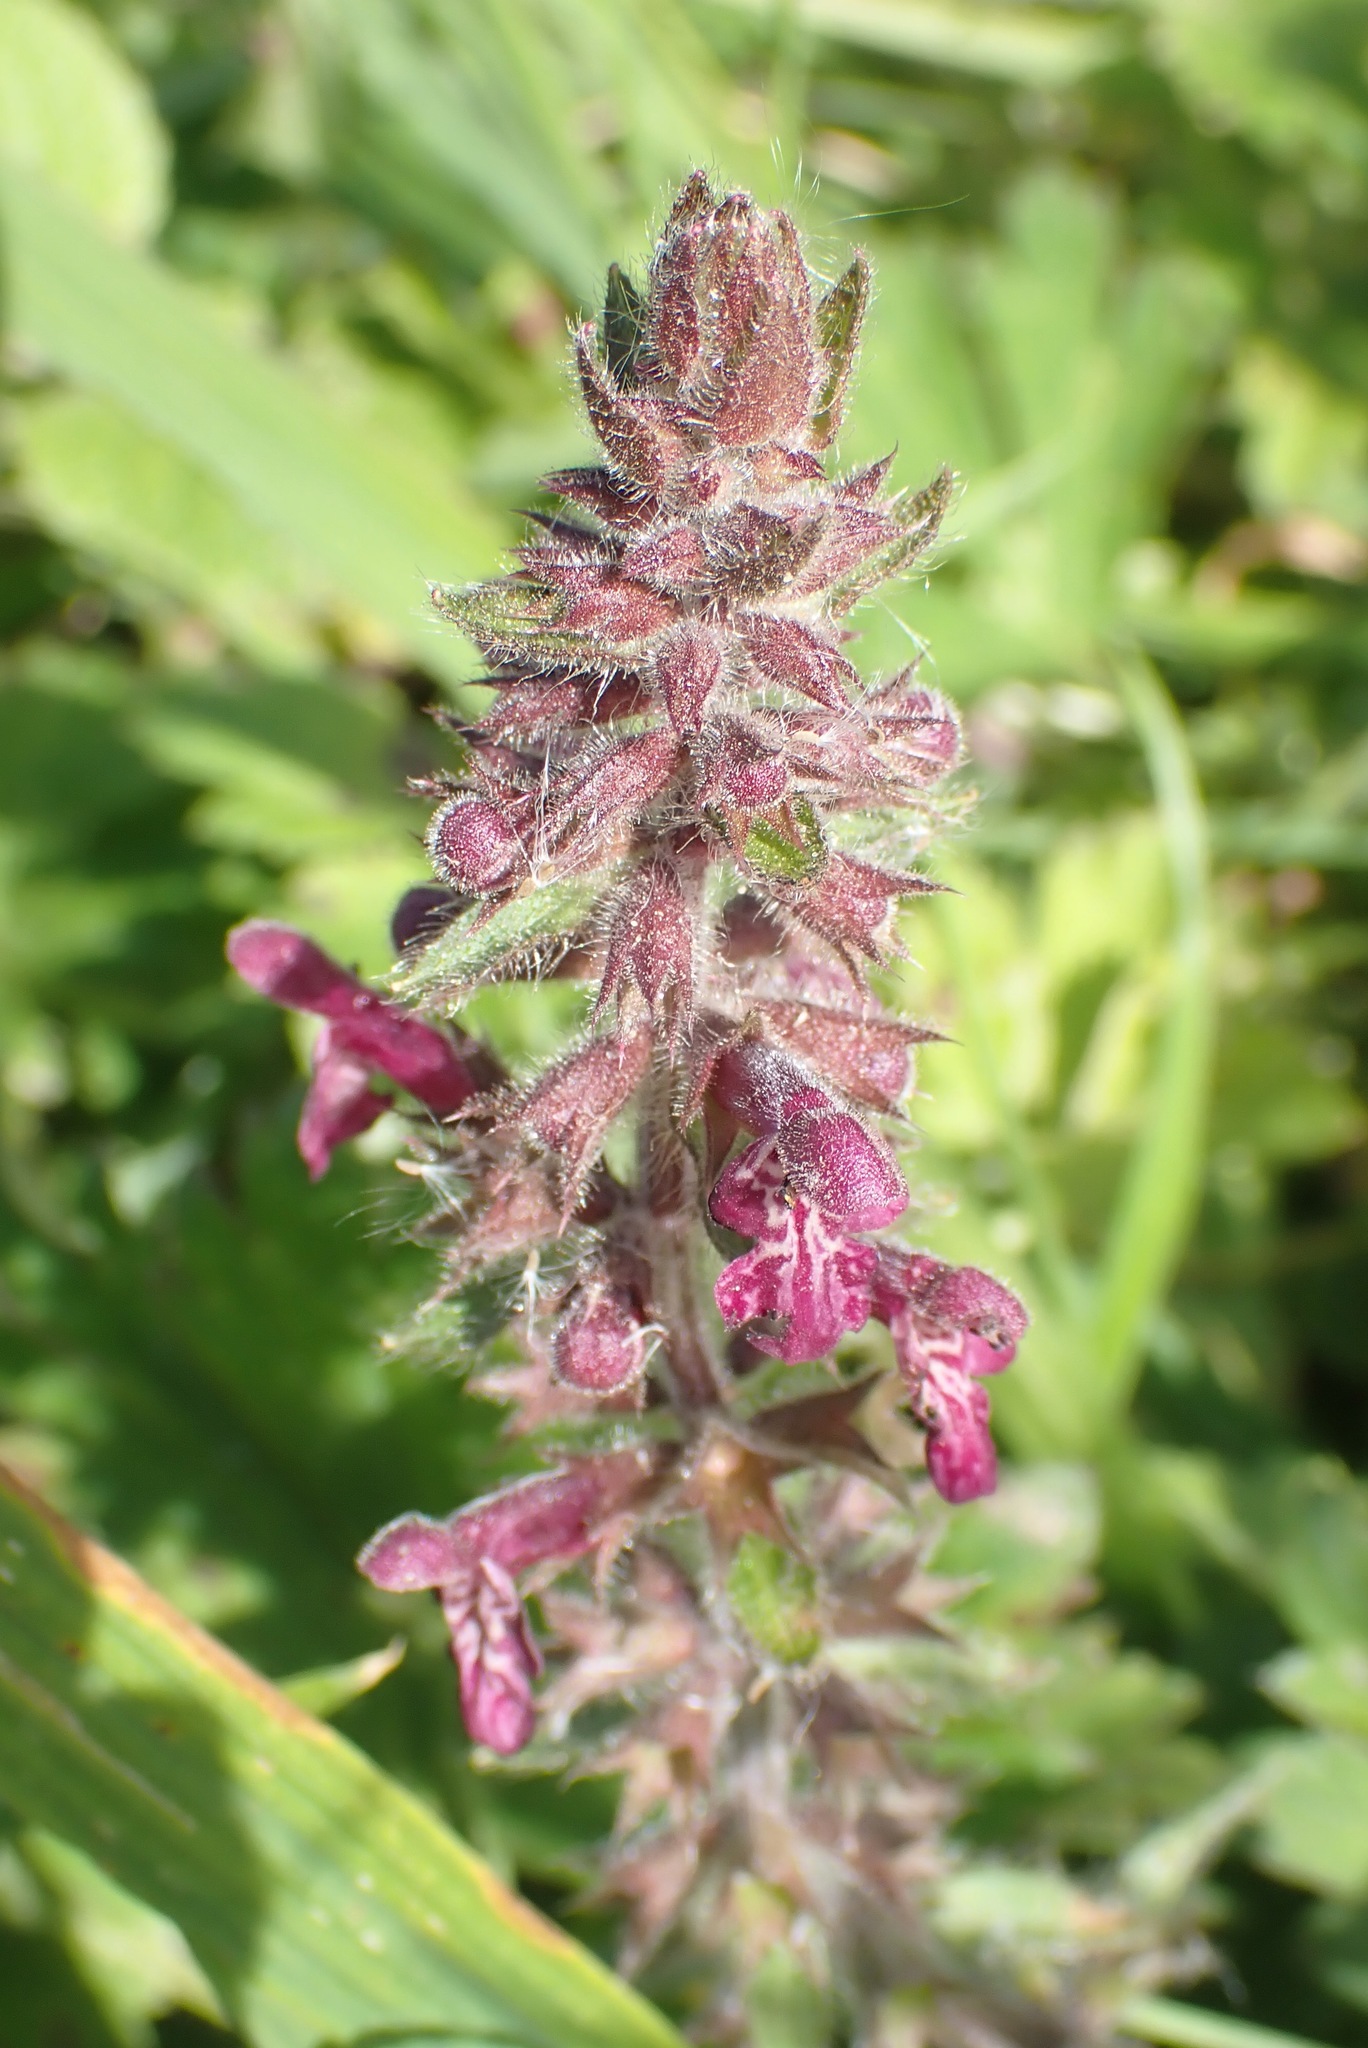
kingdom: Plantae
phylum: Tracheophyta
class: Magnoliopsida
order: Lamiales
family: Lamiaceae
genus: Stachys
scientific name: Stachys sylvatica
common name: Hedge woundwort
